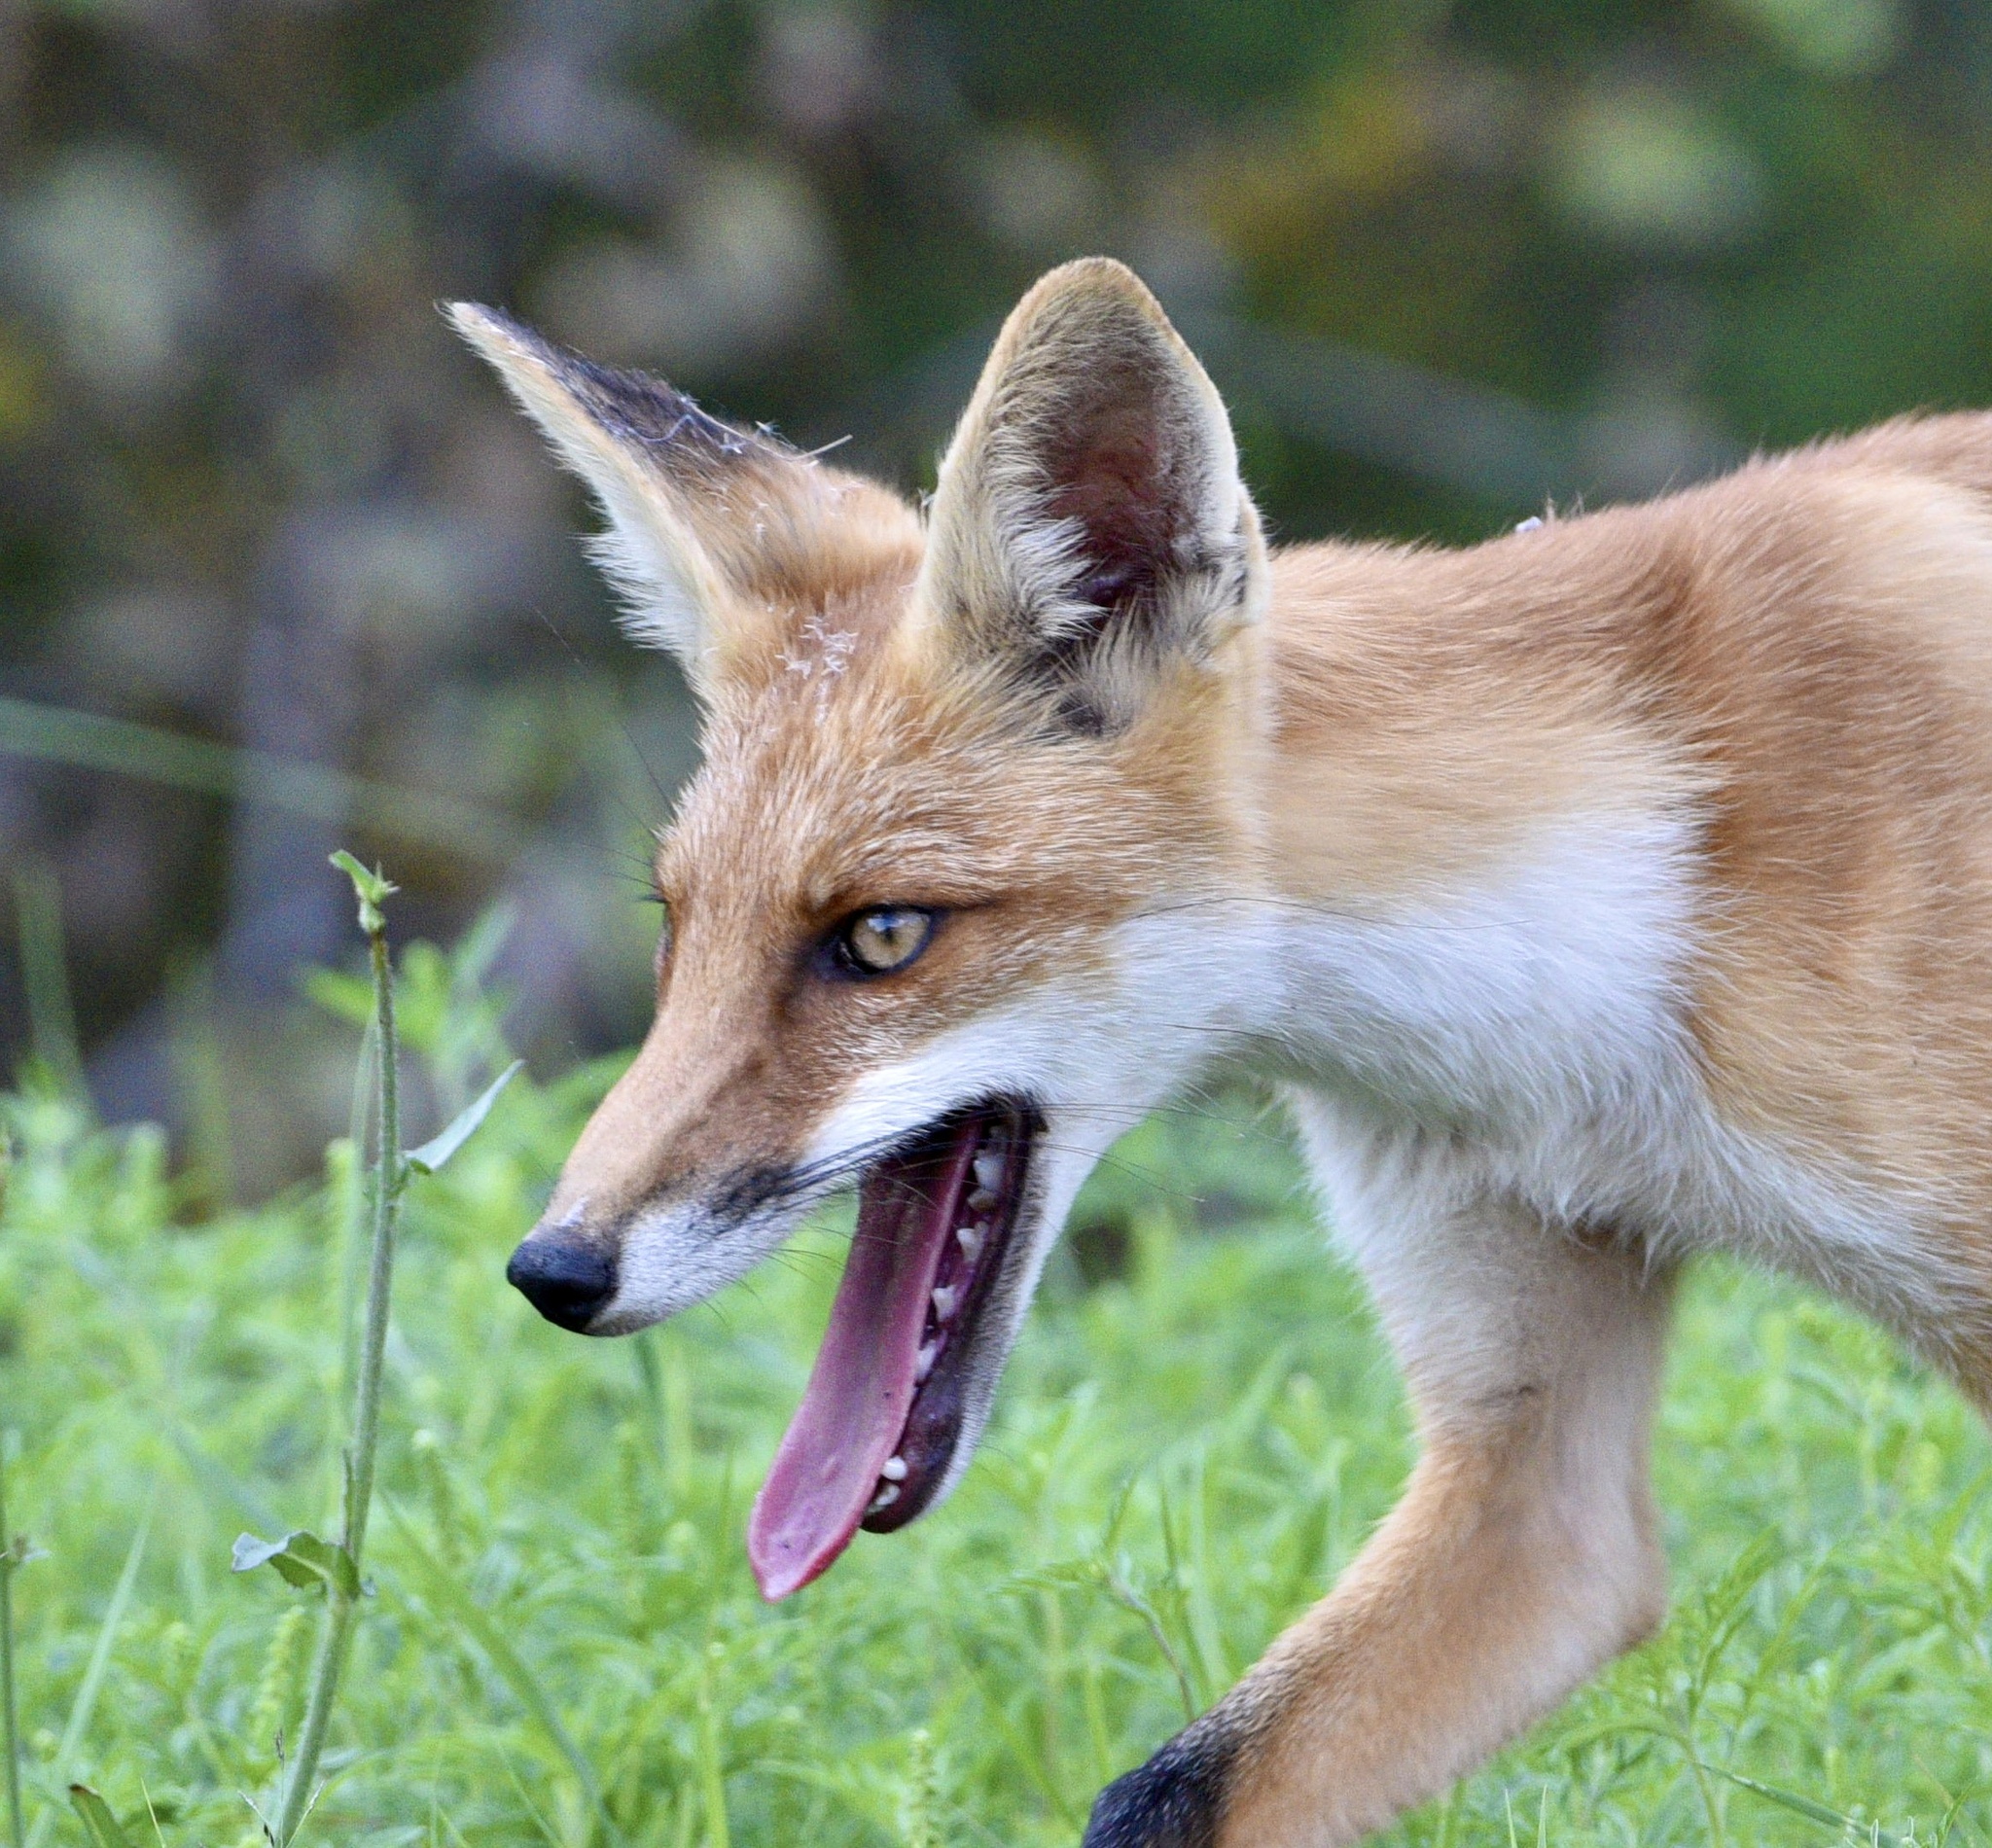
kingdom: Animalia
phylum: Chordata
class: Mammalia
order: Carnivora
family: Canidae
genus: Vulpes
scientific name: Vulpes vulpes
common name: Red fox
